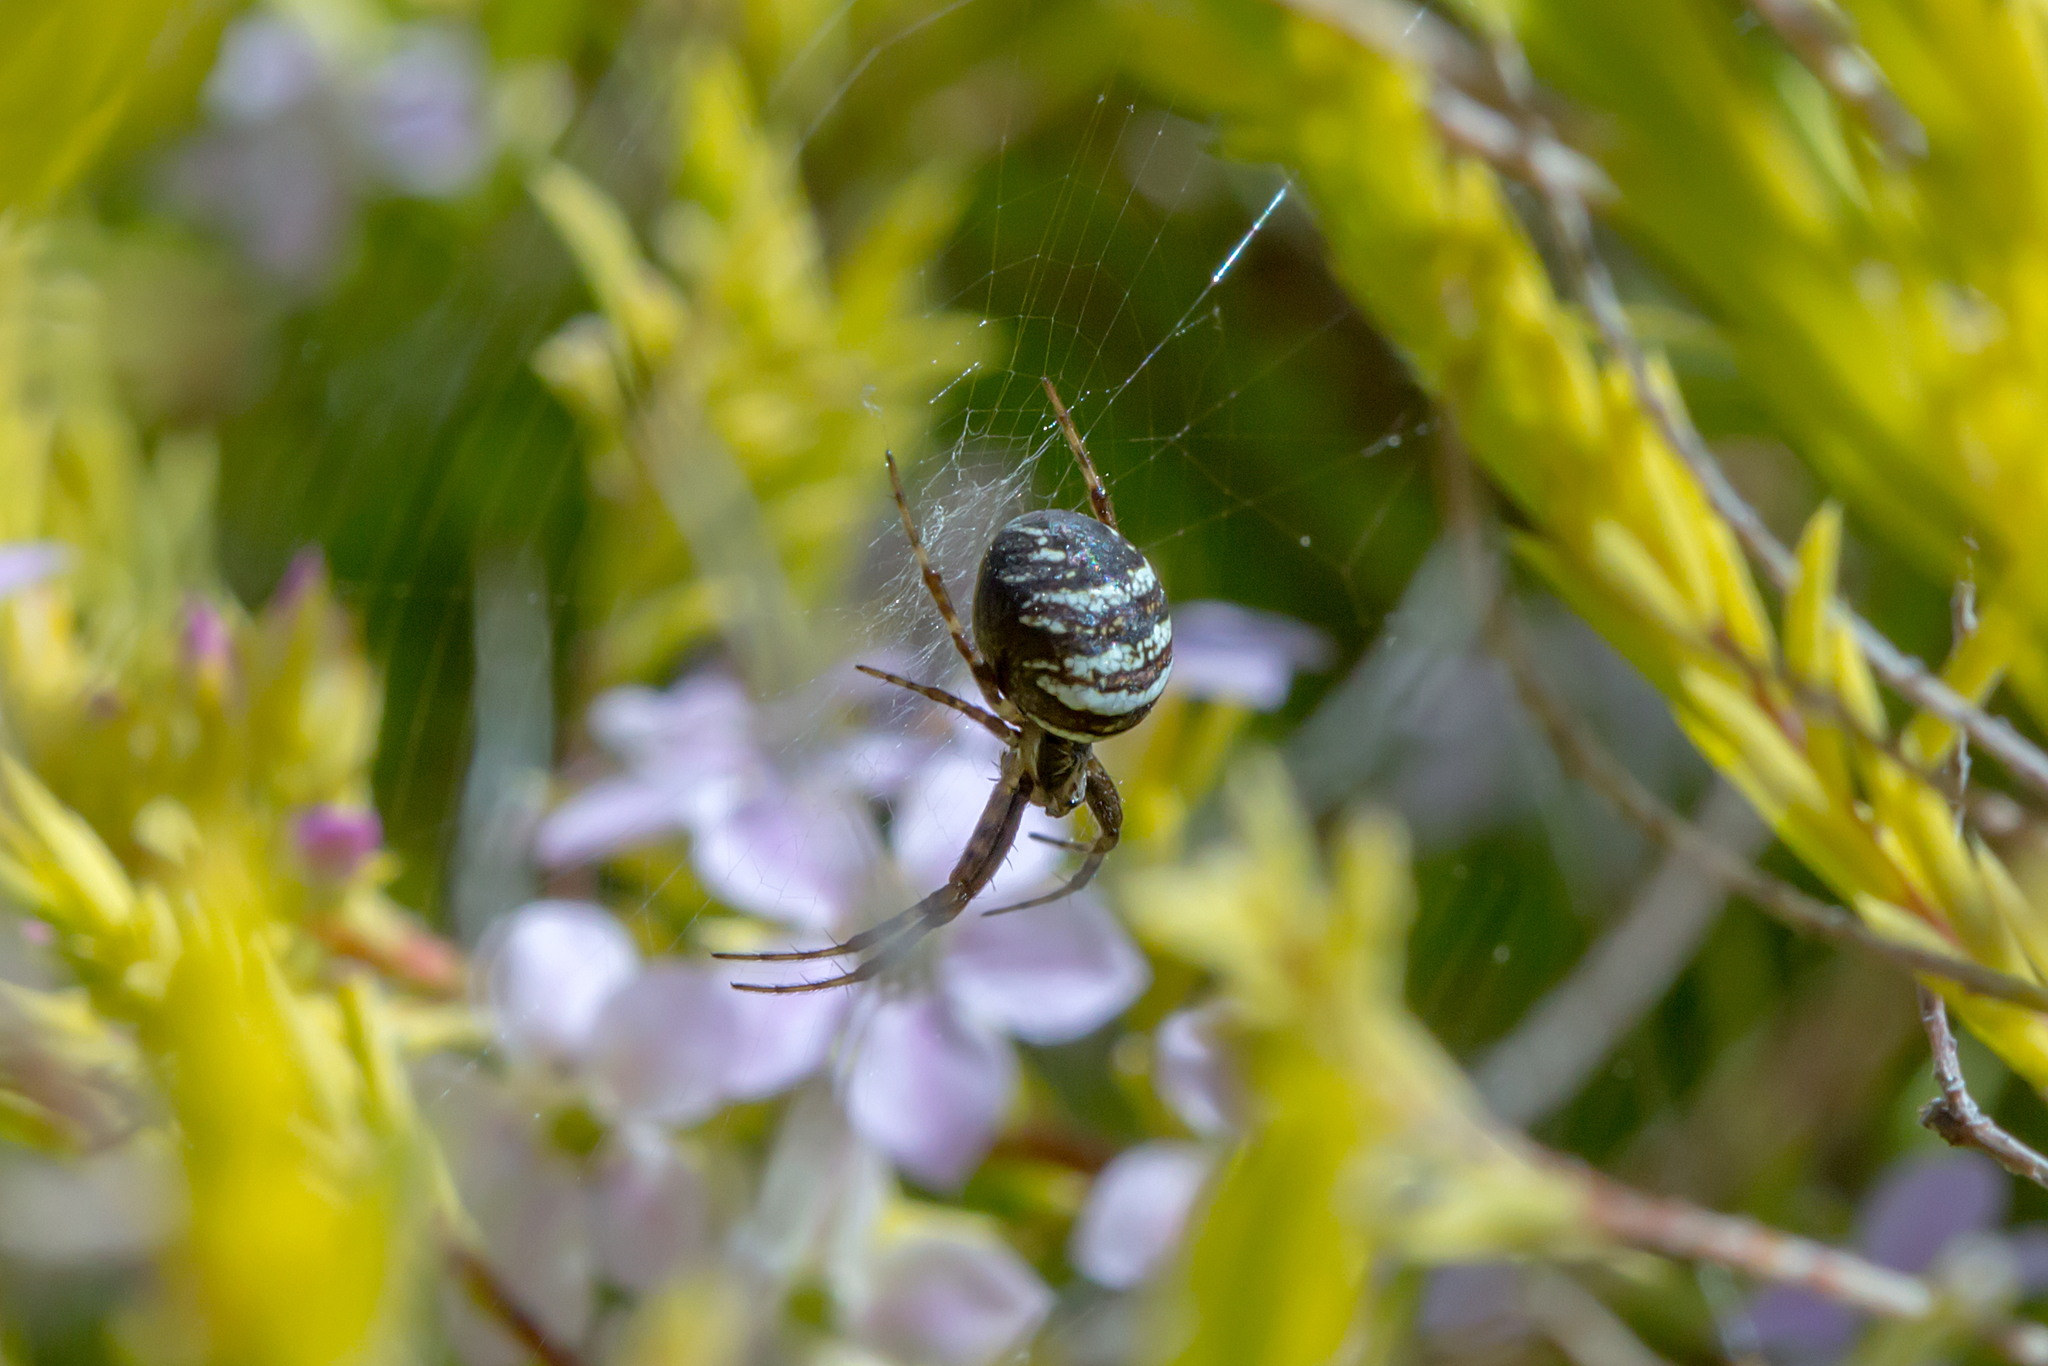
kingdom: Animalia
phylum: Arthropoda
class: Arachnida
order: Araneae
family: Araneidae
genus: Gea
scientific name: Gea theridioides
